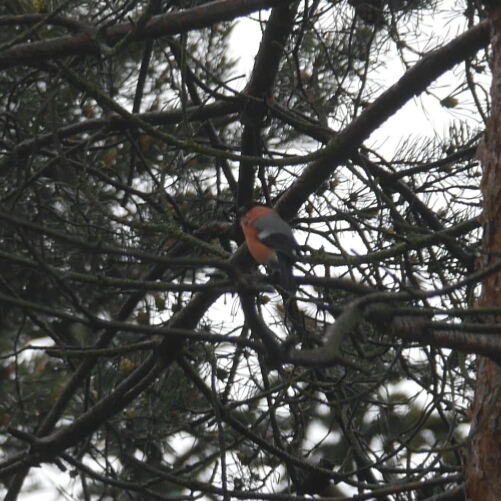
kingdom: Animalia
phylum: Chordata
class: Aves
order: Passeriformes
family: Fringillidae
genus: Pyrrhula
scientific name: Pyrrhula pyrrhula
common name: Eurasian bullfinch
